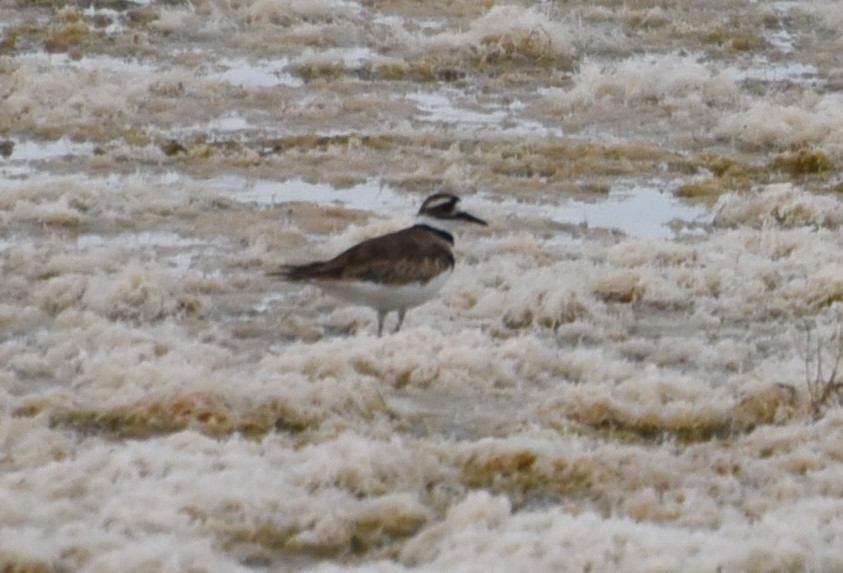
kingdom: Animalia
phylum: Chordata
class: Aves
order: Charadriiformes
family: Charadriidae
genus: Charadrius
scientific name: Charadrius vociferus
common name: Killdeer
